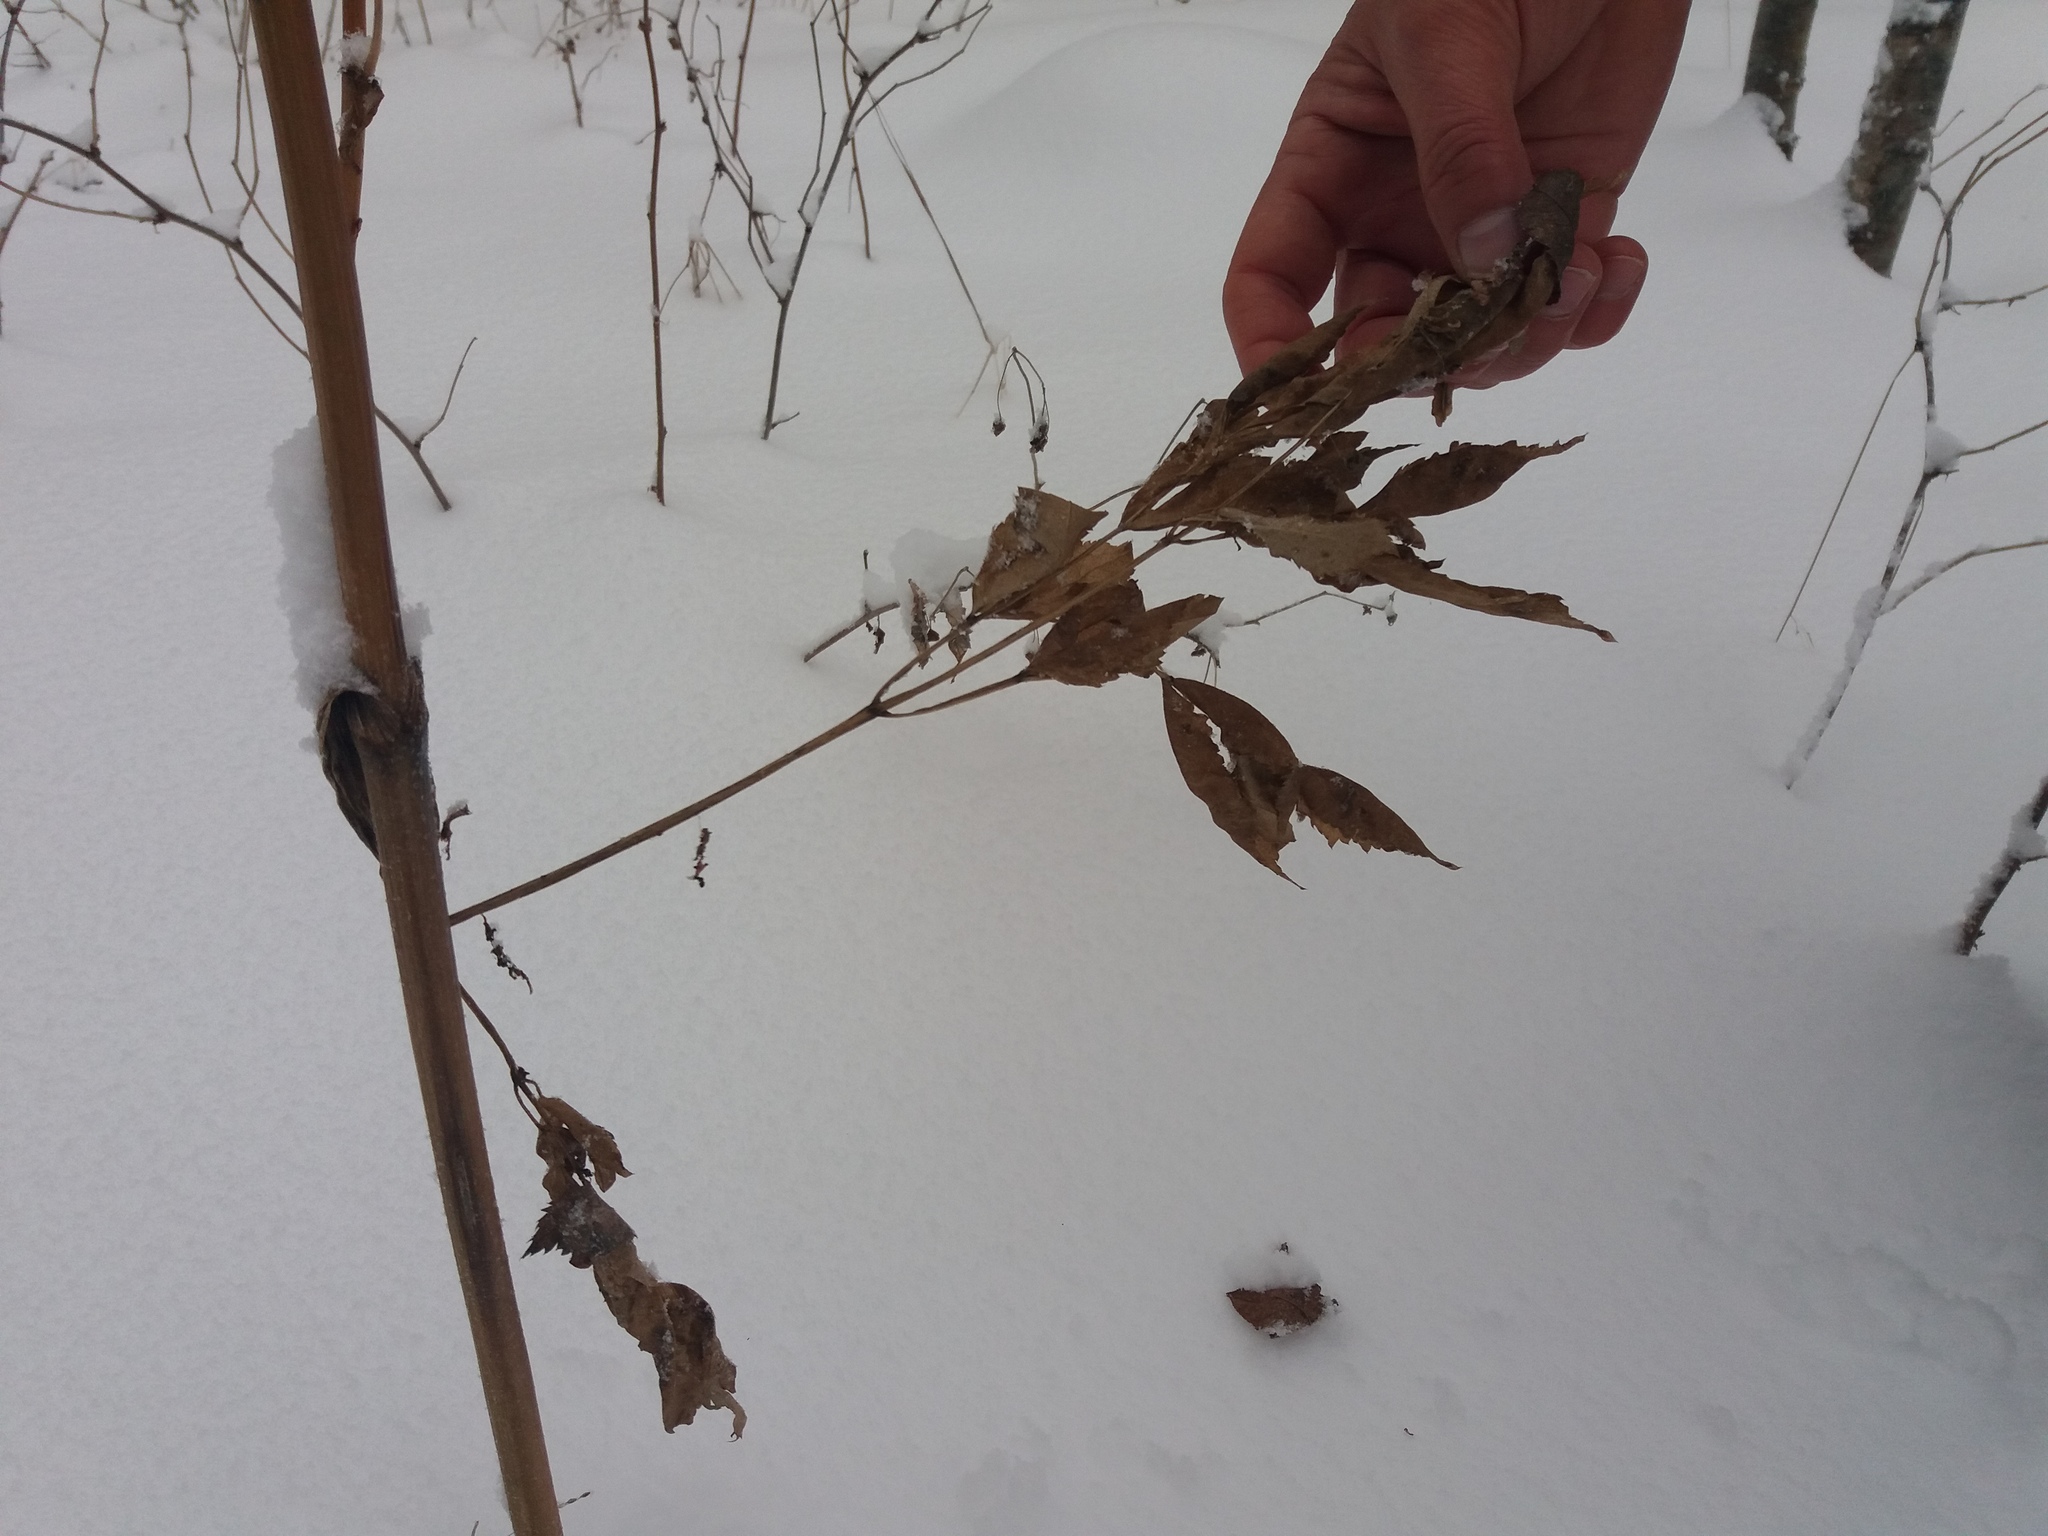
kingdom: Plantae
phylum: Tracheophyta
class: Magnoliopsida
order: Apiales
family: Apiaceae
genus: Angelica
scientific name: Angelica sylvestris
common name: Wild angelica
